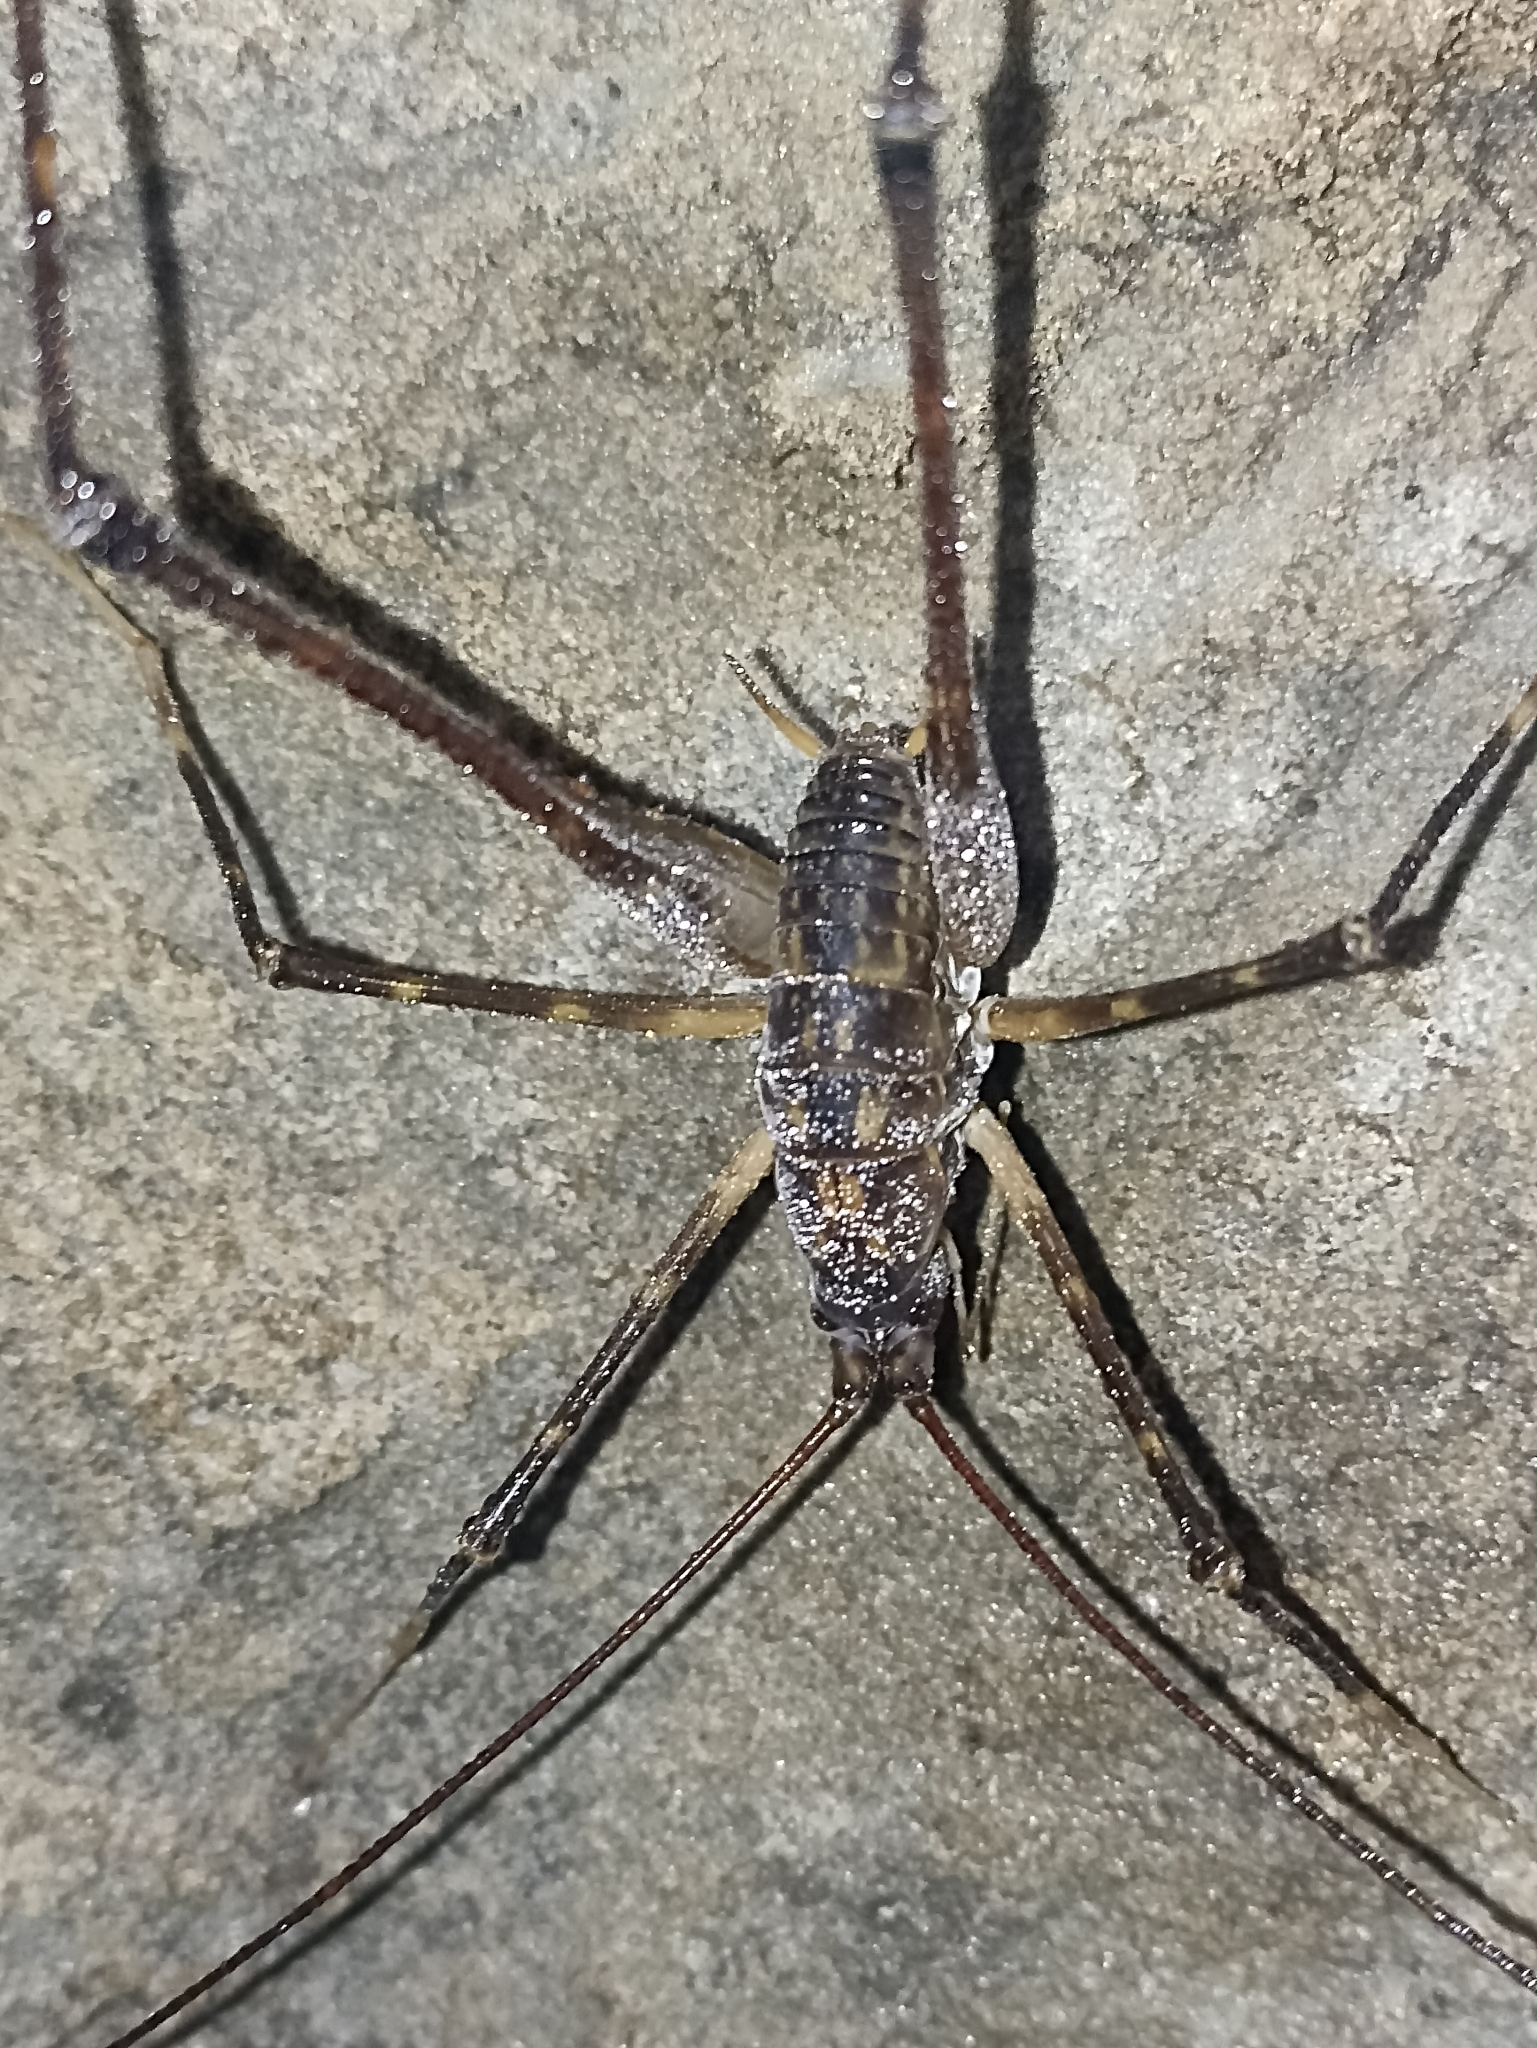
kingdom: Animalia
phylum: Arthropoda
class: Insecta
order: Orthoptera
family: Rhaphidophoridae
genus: Pachyrhamma
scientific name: Pachyrhamma cavernae
